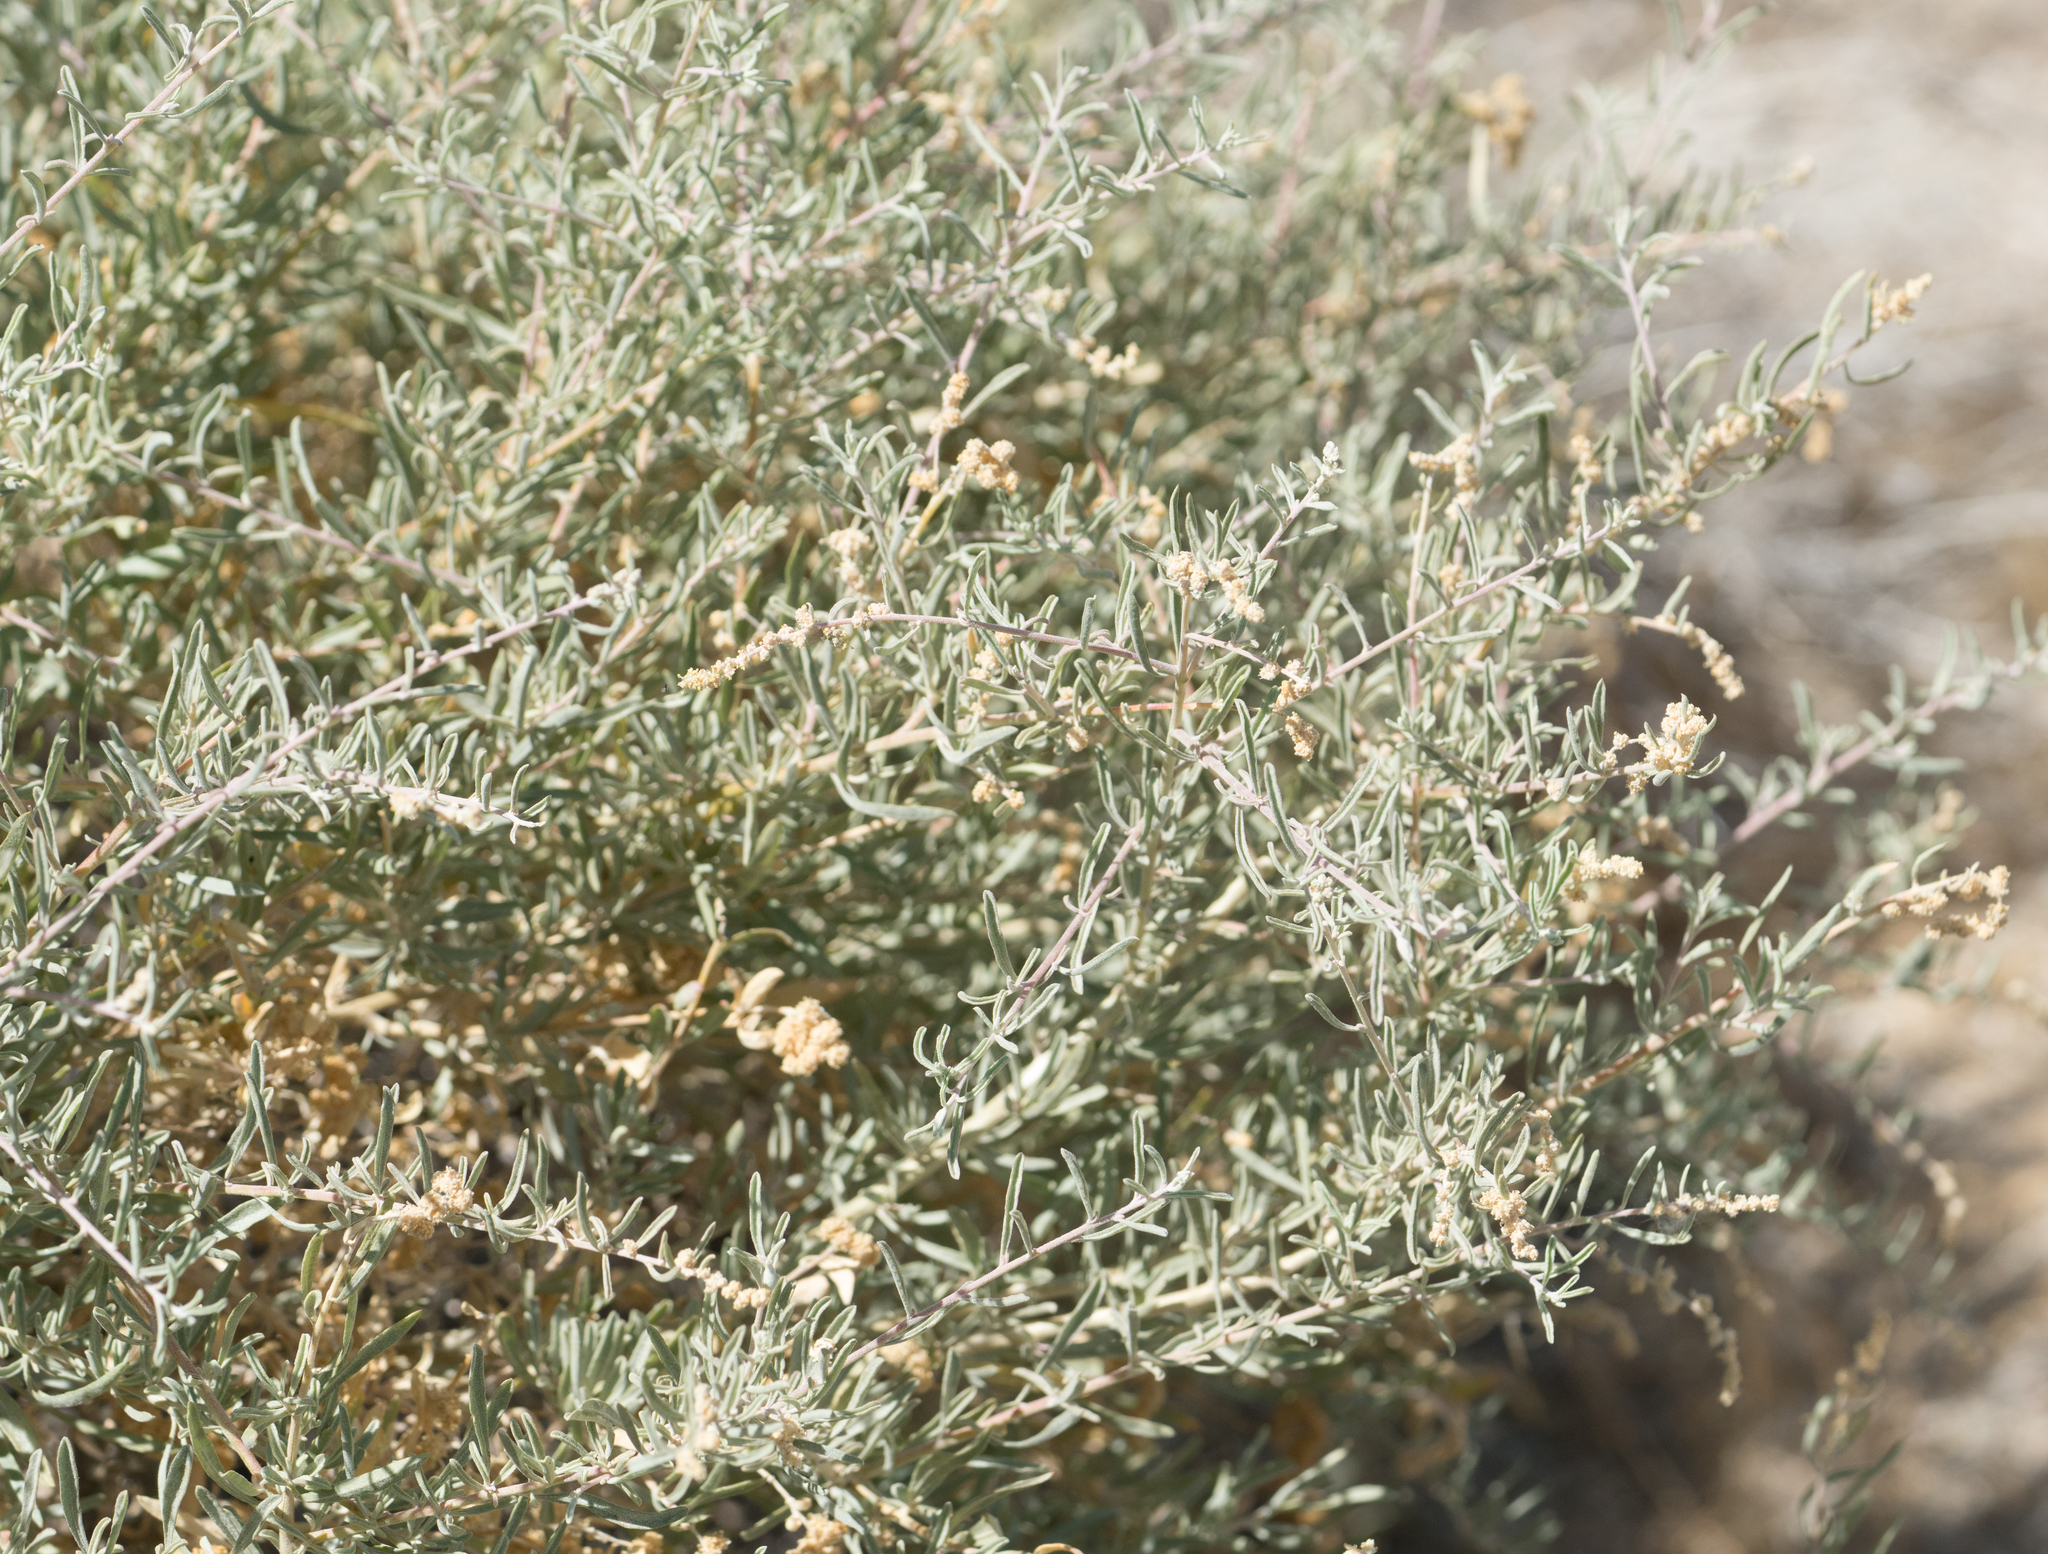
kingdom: Plantae
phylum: Tracheophyta
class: Magnoliopsida
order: Caryophyllales
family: Amaranthaceae
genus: Atriplex
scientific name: Atriplex canescens
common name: Four-wing saltbush
